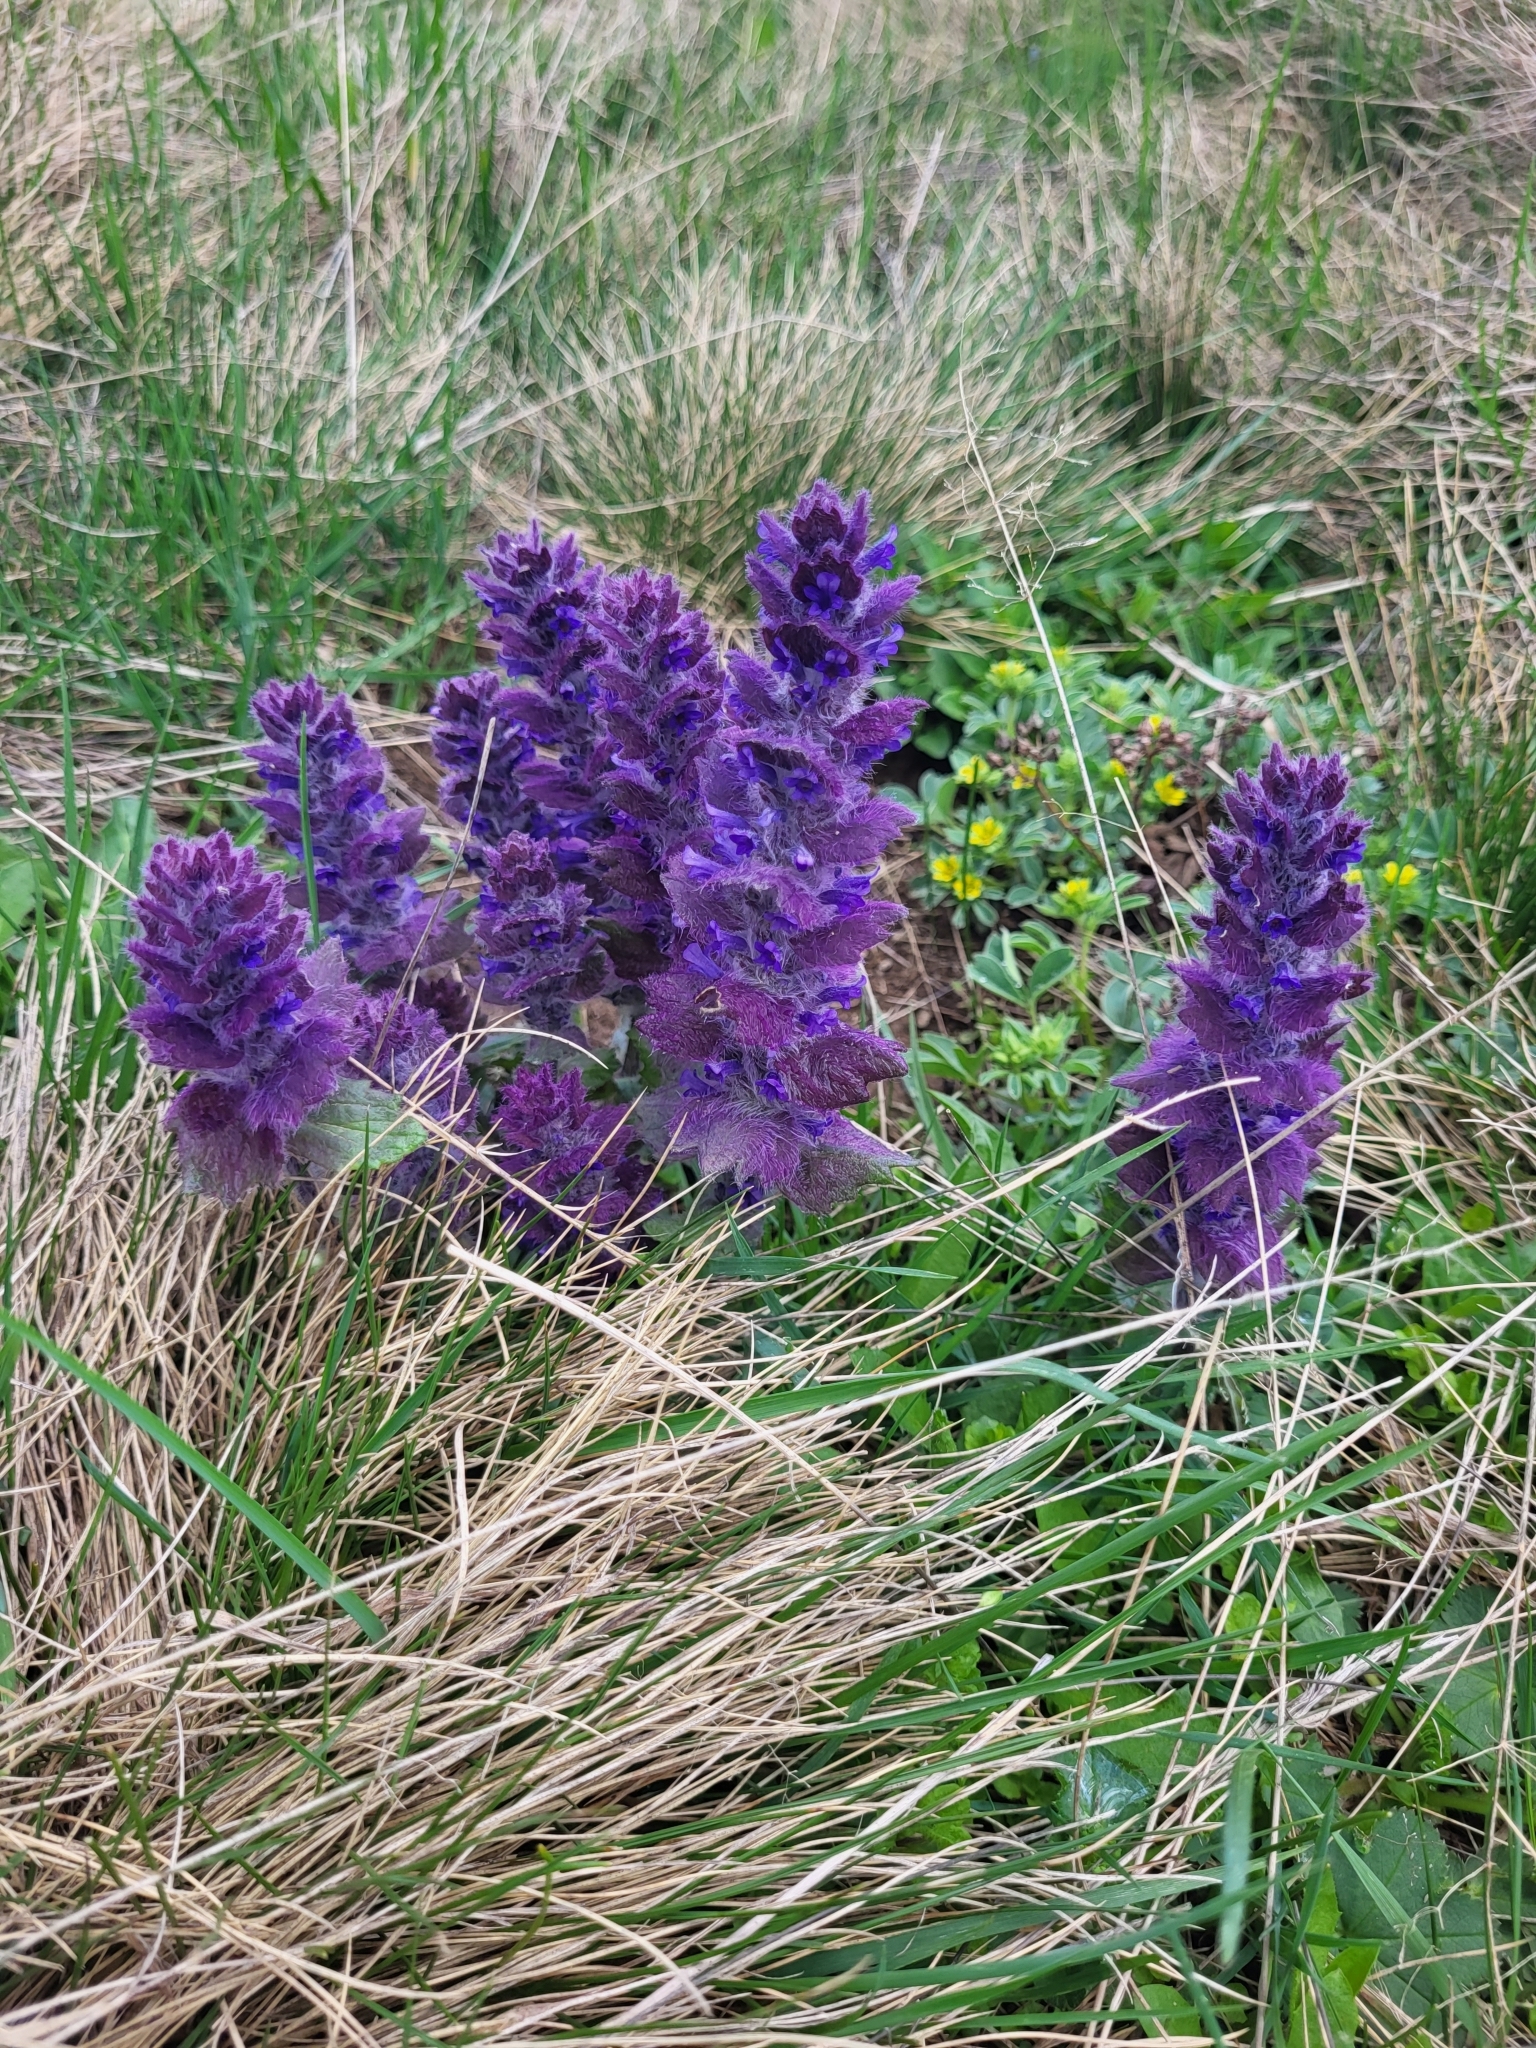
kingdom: Plantae
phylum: Tracheophyta
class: Magnoliopsida
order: Lamiales
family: Lamiaceae
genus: Ajuga
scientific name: Ajuga orientalis
